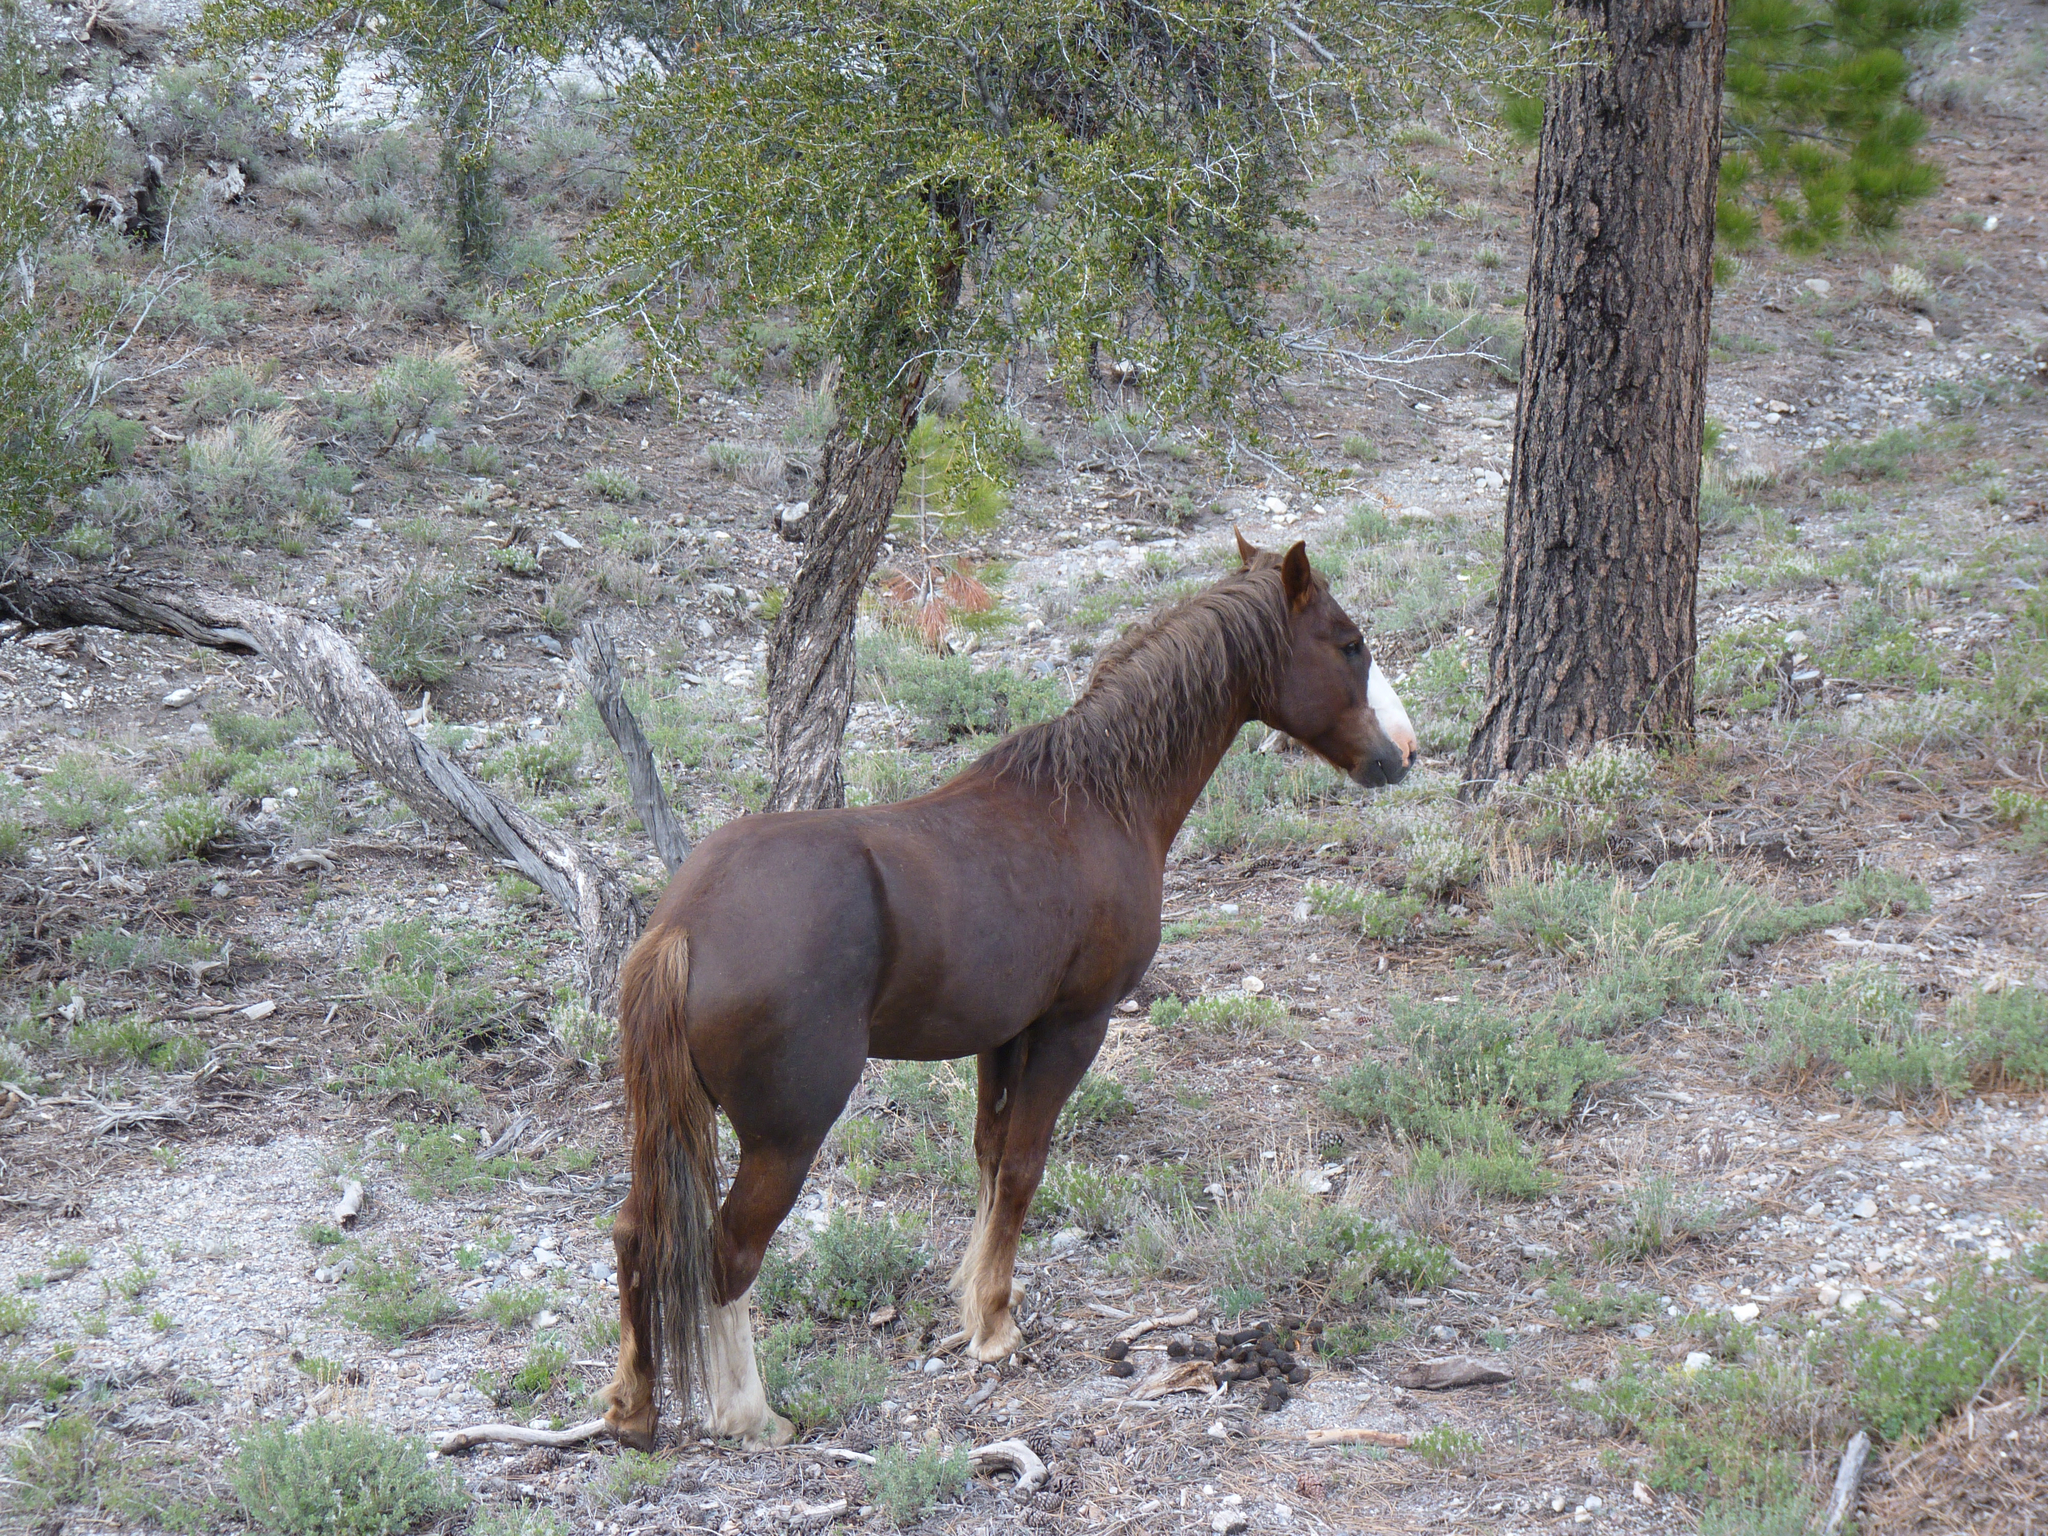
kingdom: Animalia
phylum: Chordata
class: Mammalia
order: Perissodactyla
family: Equidae
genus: Equus
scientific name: Equus caballus
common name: Horse
